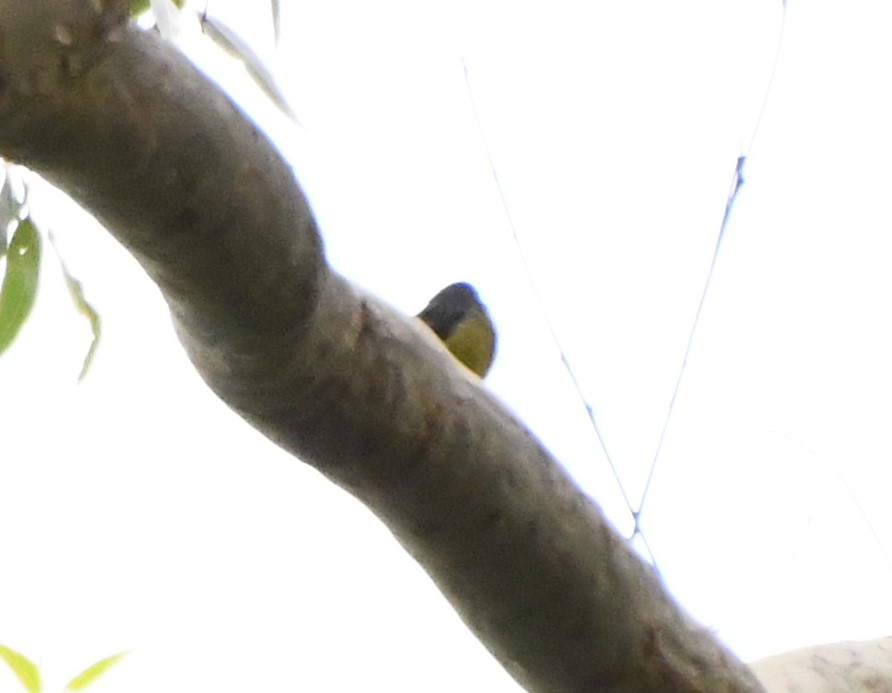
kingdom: Animalia
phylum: Chordata
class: Aves
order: Passeriformes
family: Petroicidae
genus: Eopsaltria
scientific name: Eopsaltria australis
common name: Eastern yellow robin
